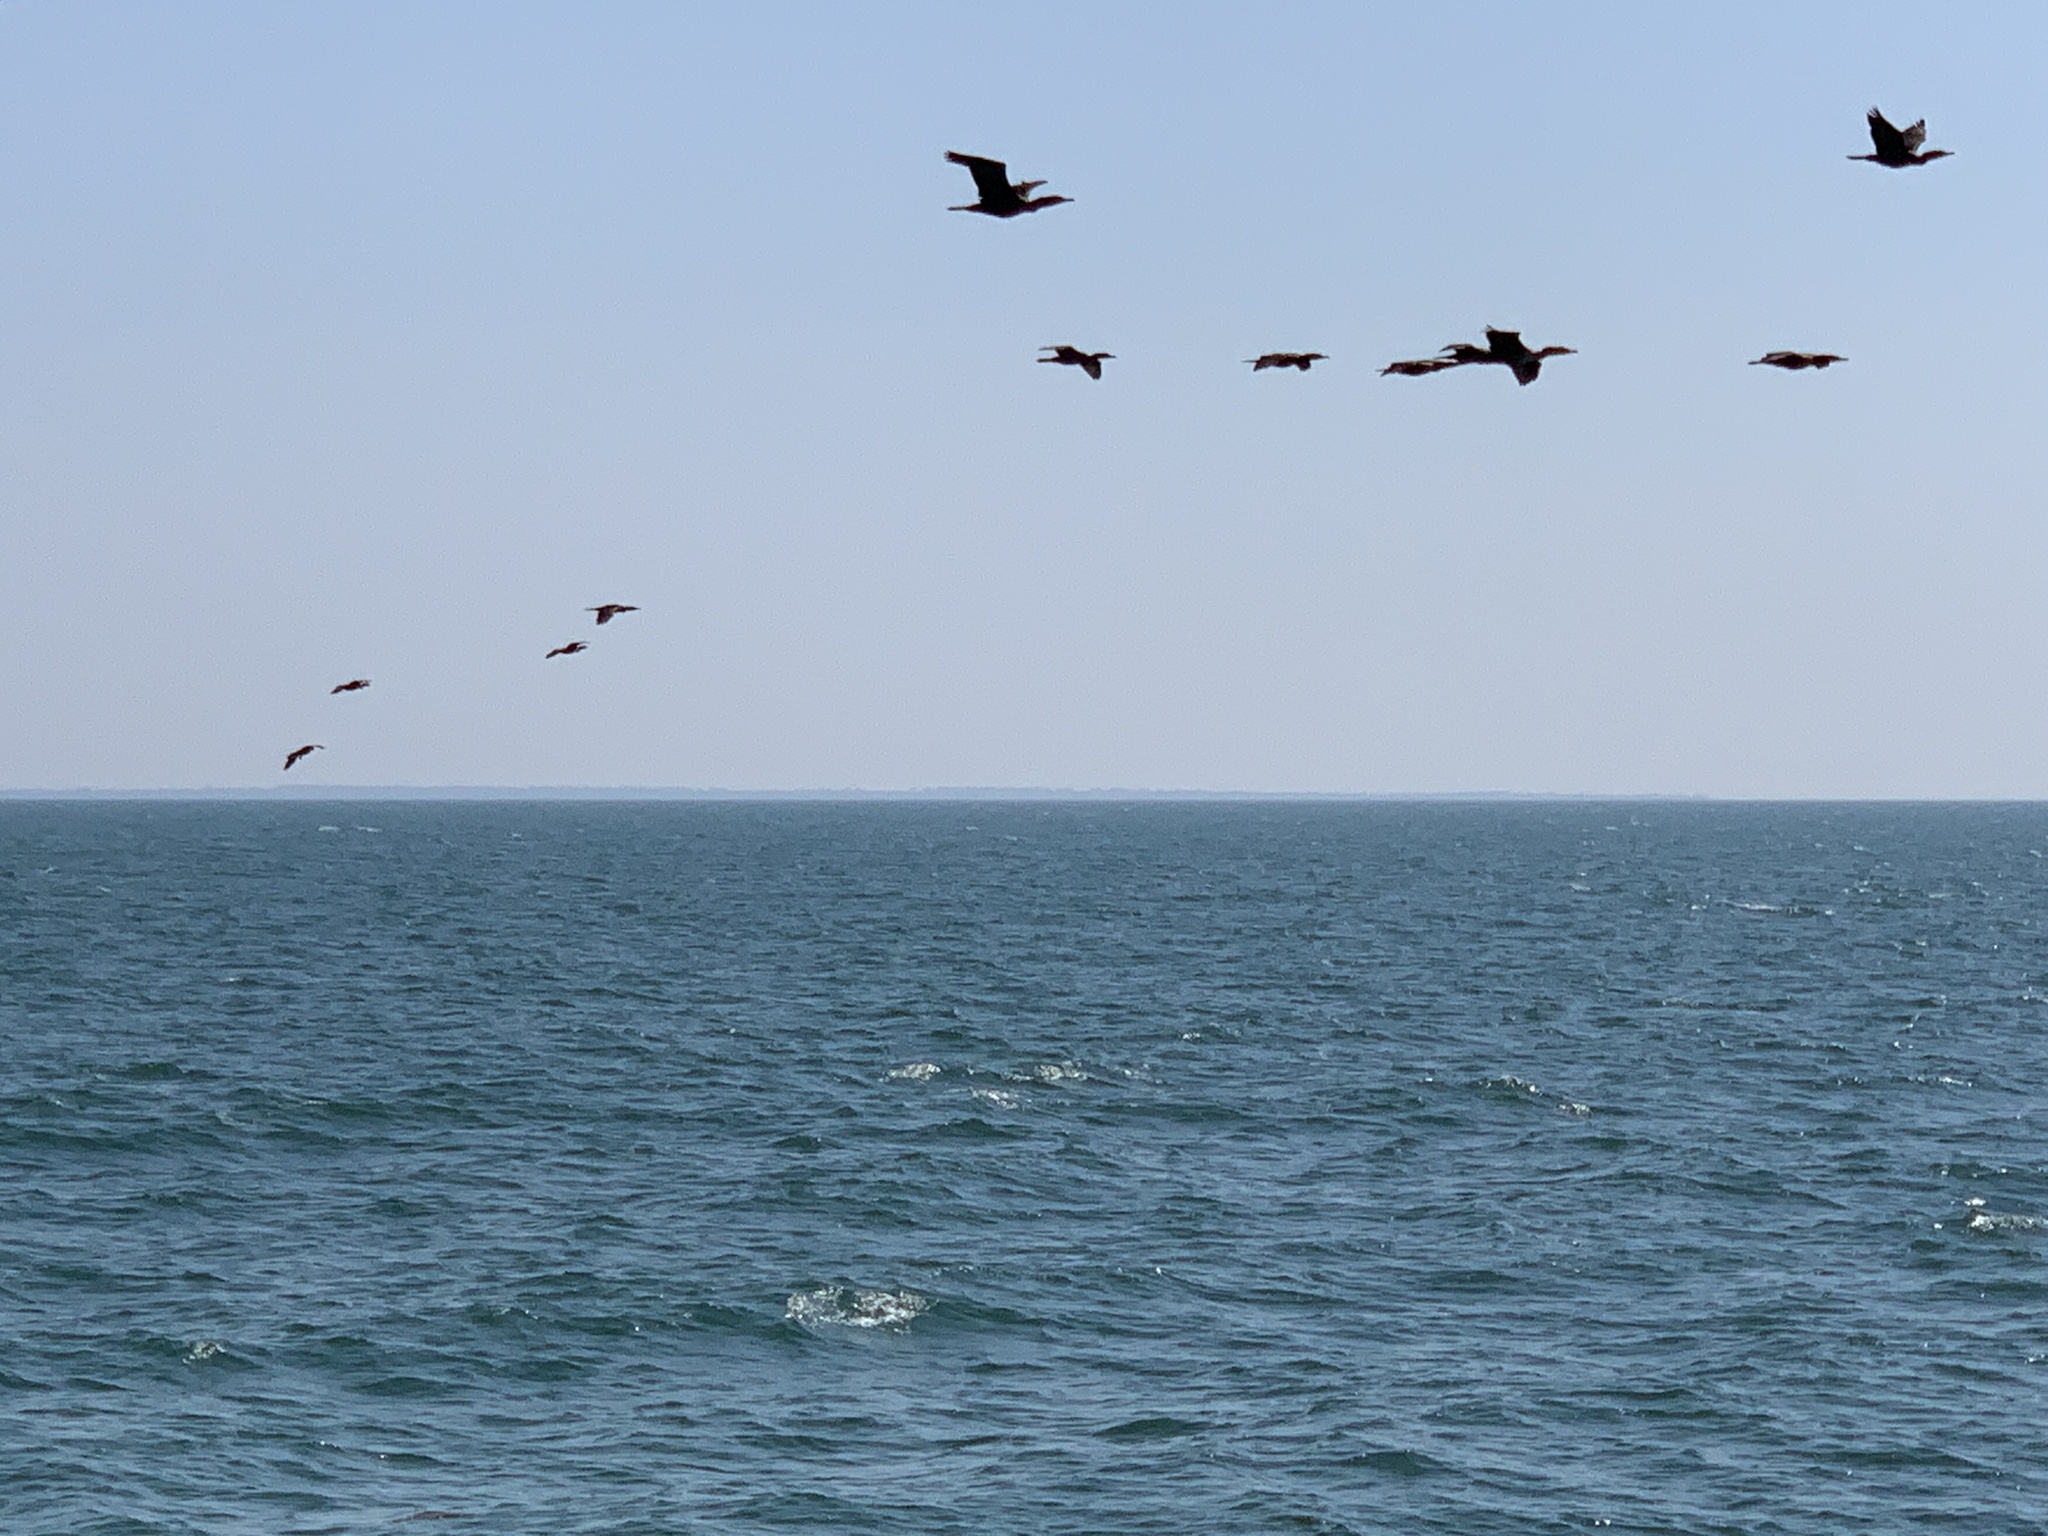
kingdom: Animalia
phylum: Chordata
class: Aves
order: Suliformes
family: Phalacrocoracidae
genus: Phalacrocorax
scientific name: Phalacrocorax auritus
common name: Double-crested cormorant
